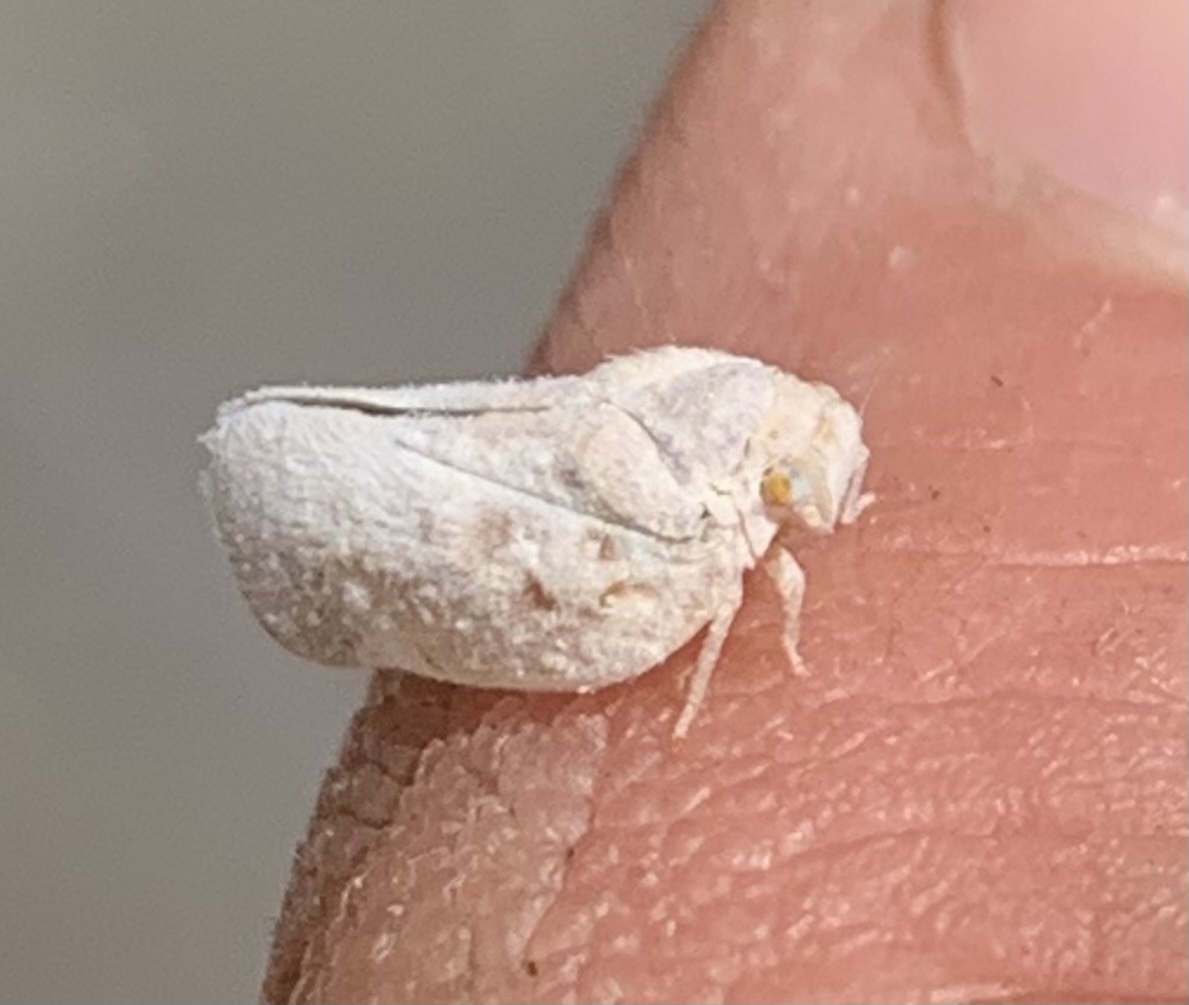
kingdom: Animalia
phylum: Arthropoda
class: Insecta
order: Hemiptera
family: Flatidae
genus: Metcalfa
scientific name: Metcalfa pruinosa
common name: Citrus flatid planthopper
